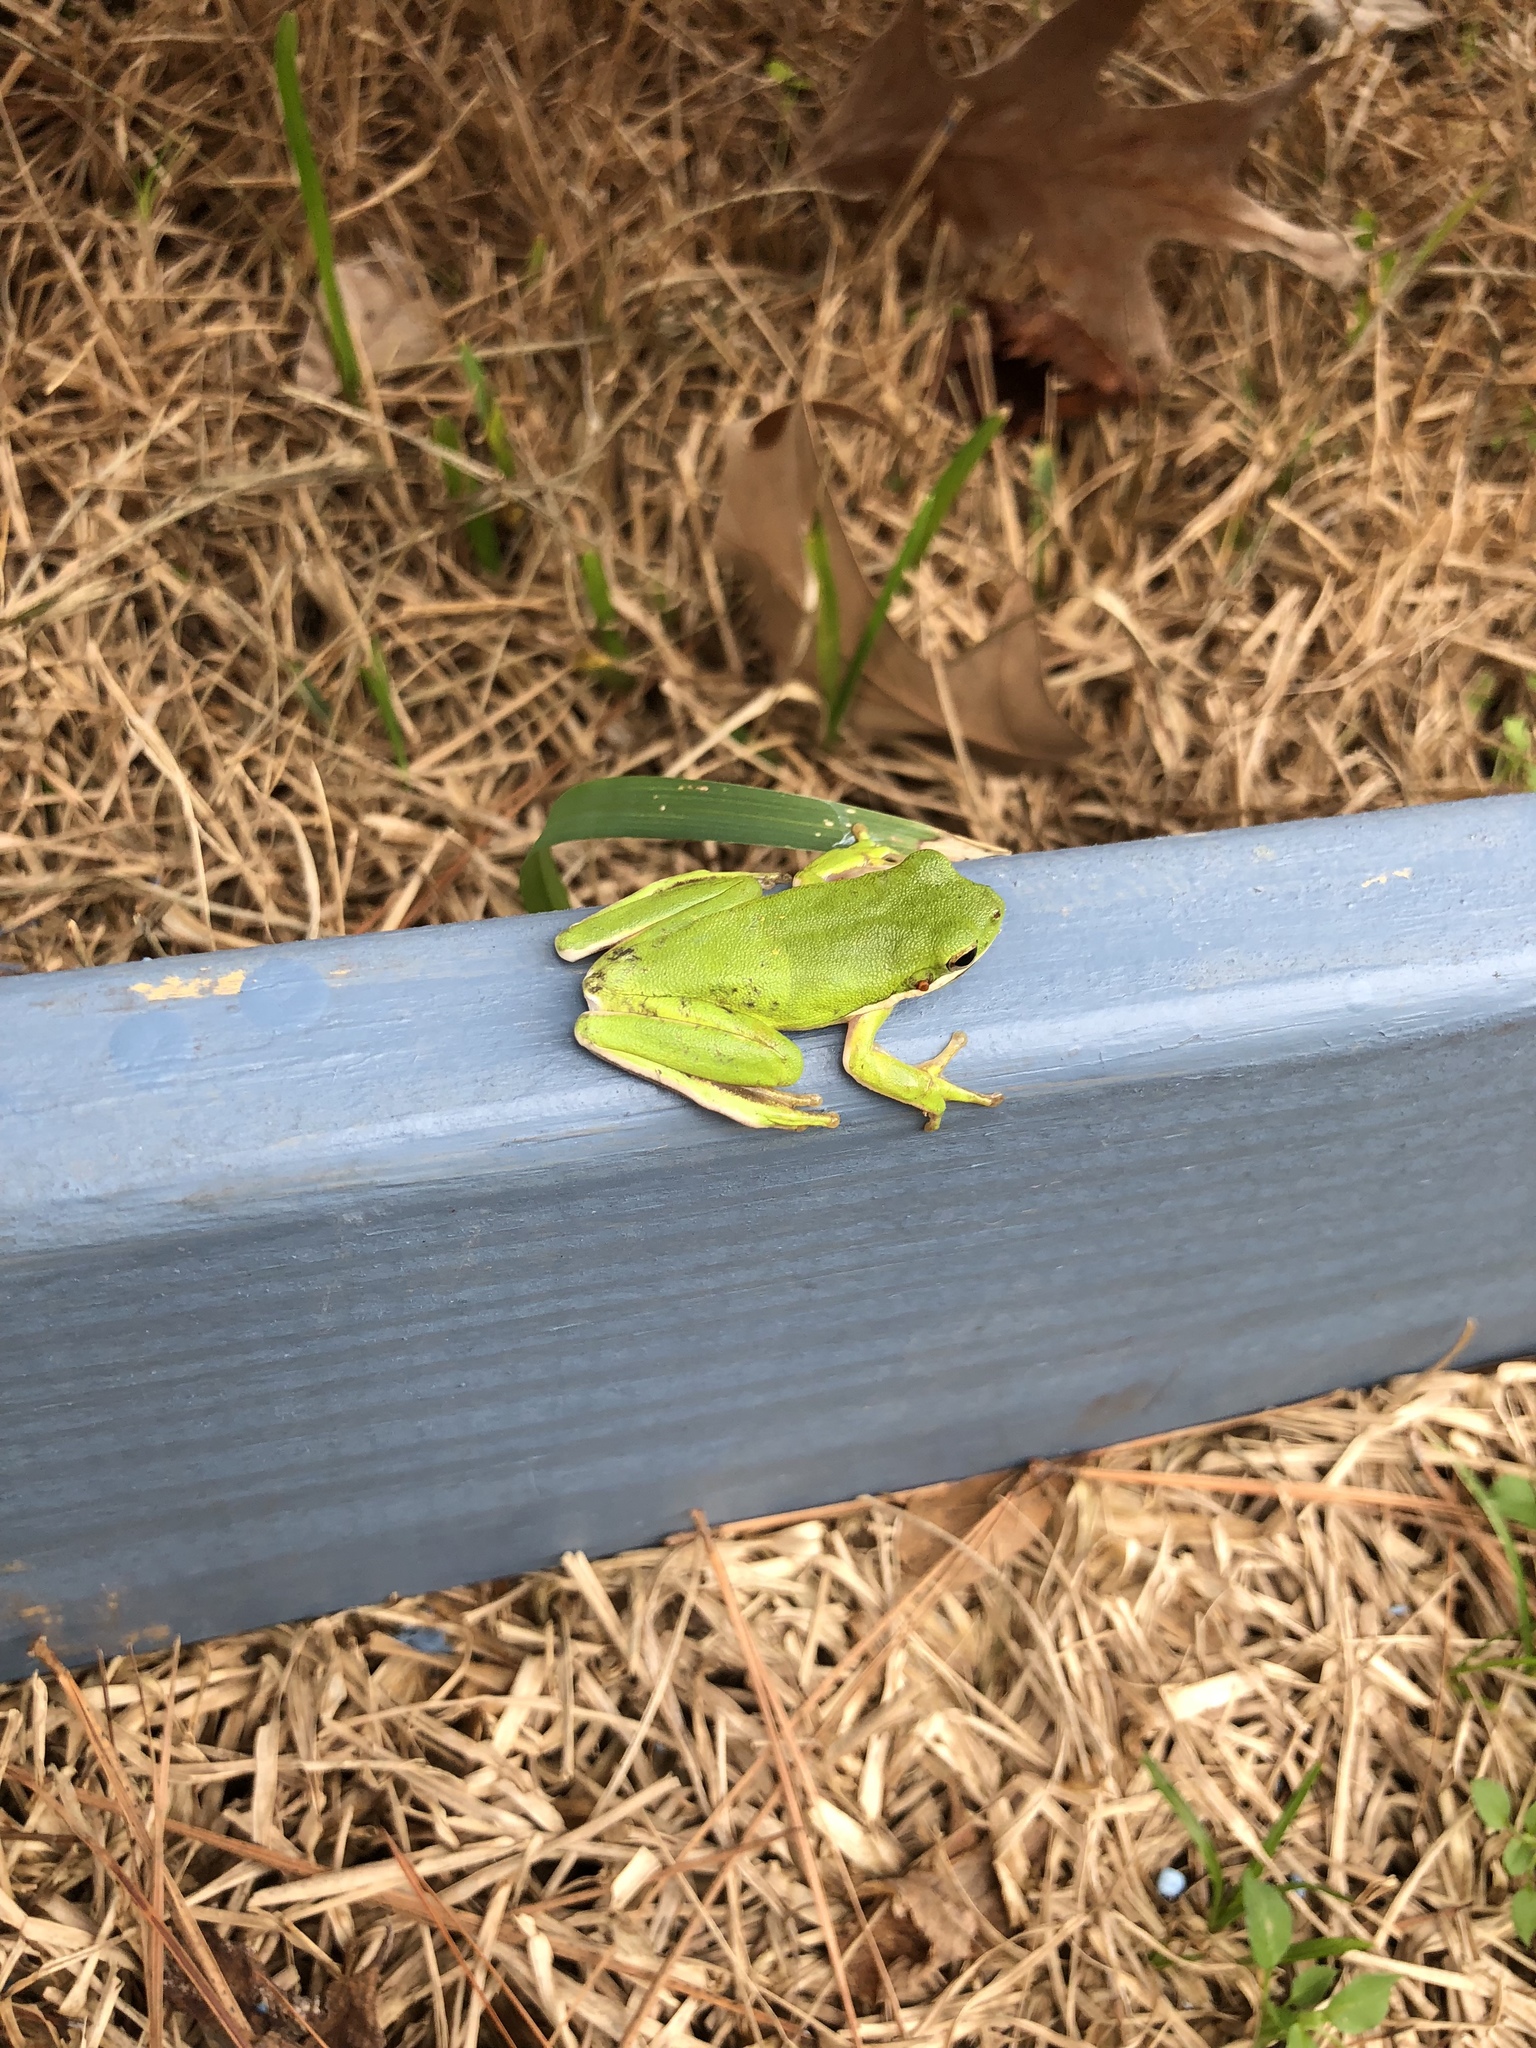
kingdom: Animalia
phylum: Chordata
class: Amphibia
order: Anura
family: Hylidae
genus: Dryophytes
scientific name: Dryophytes cinereus
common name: Green treefrog
